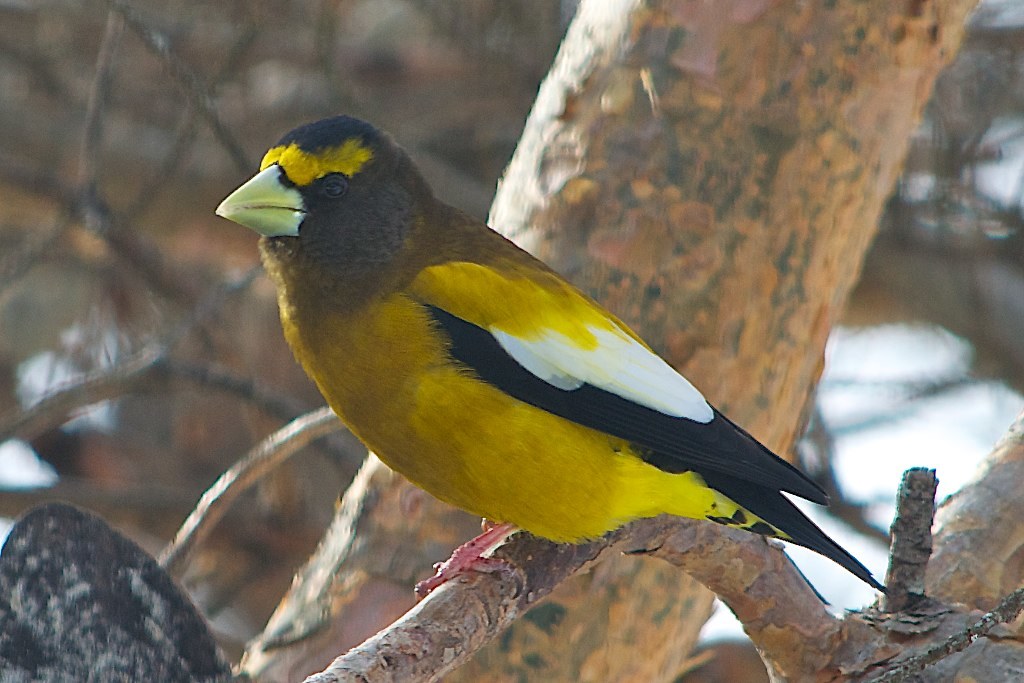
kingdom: Animalia
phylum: Chordata
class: Aves
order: Passeriformes
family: Fringillidae
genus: Hesperiphona
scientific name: Hesperiphona vespertina
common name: Evening grosbeak
